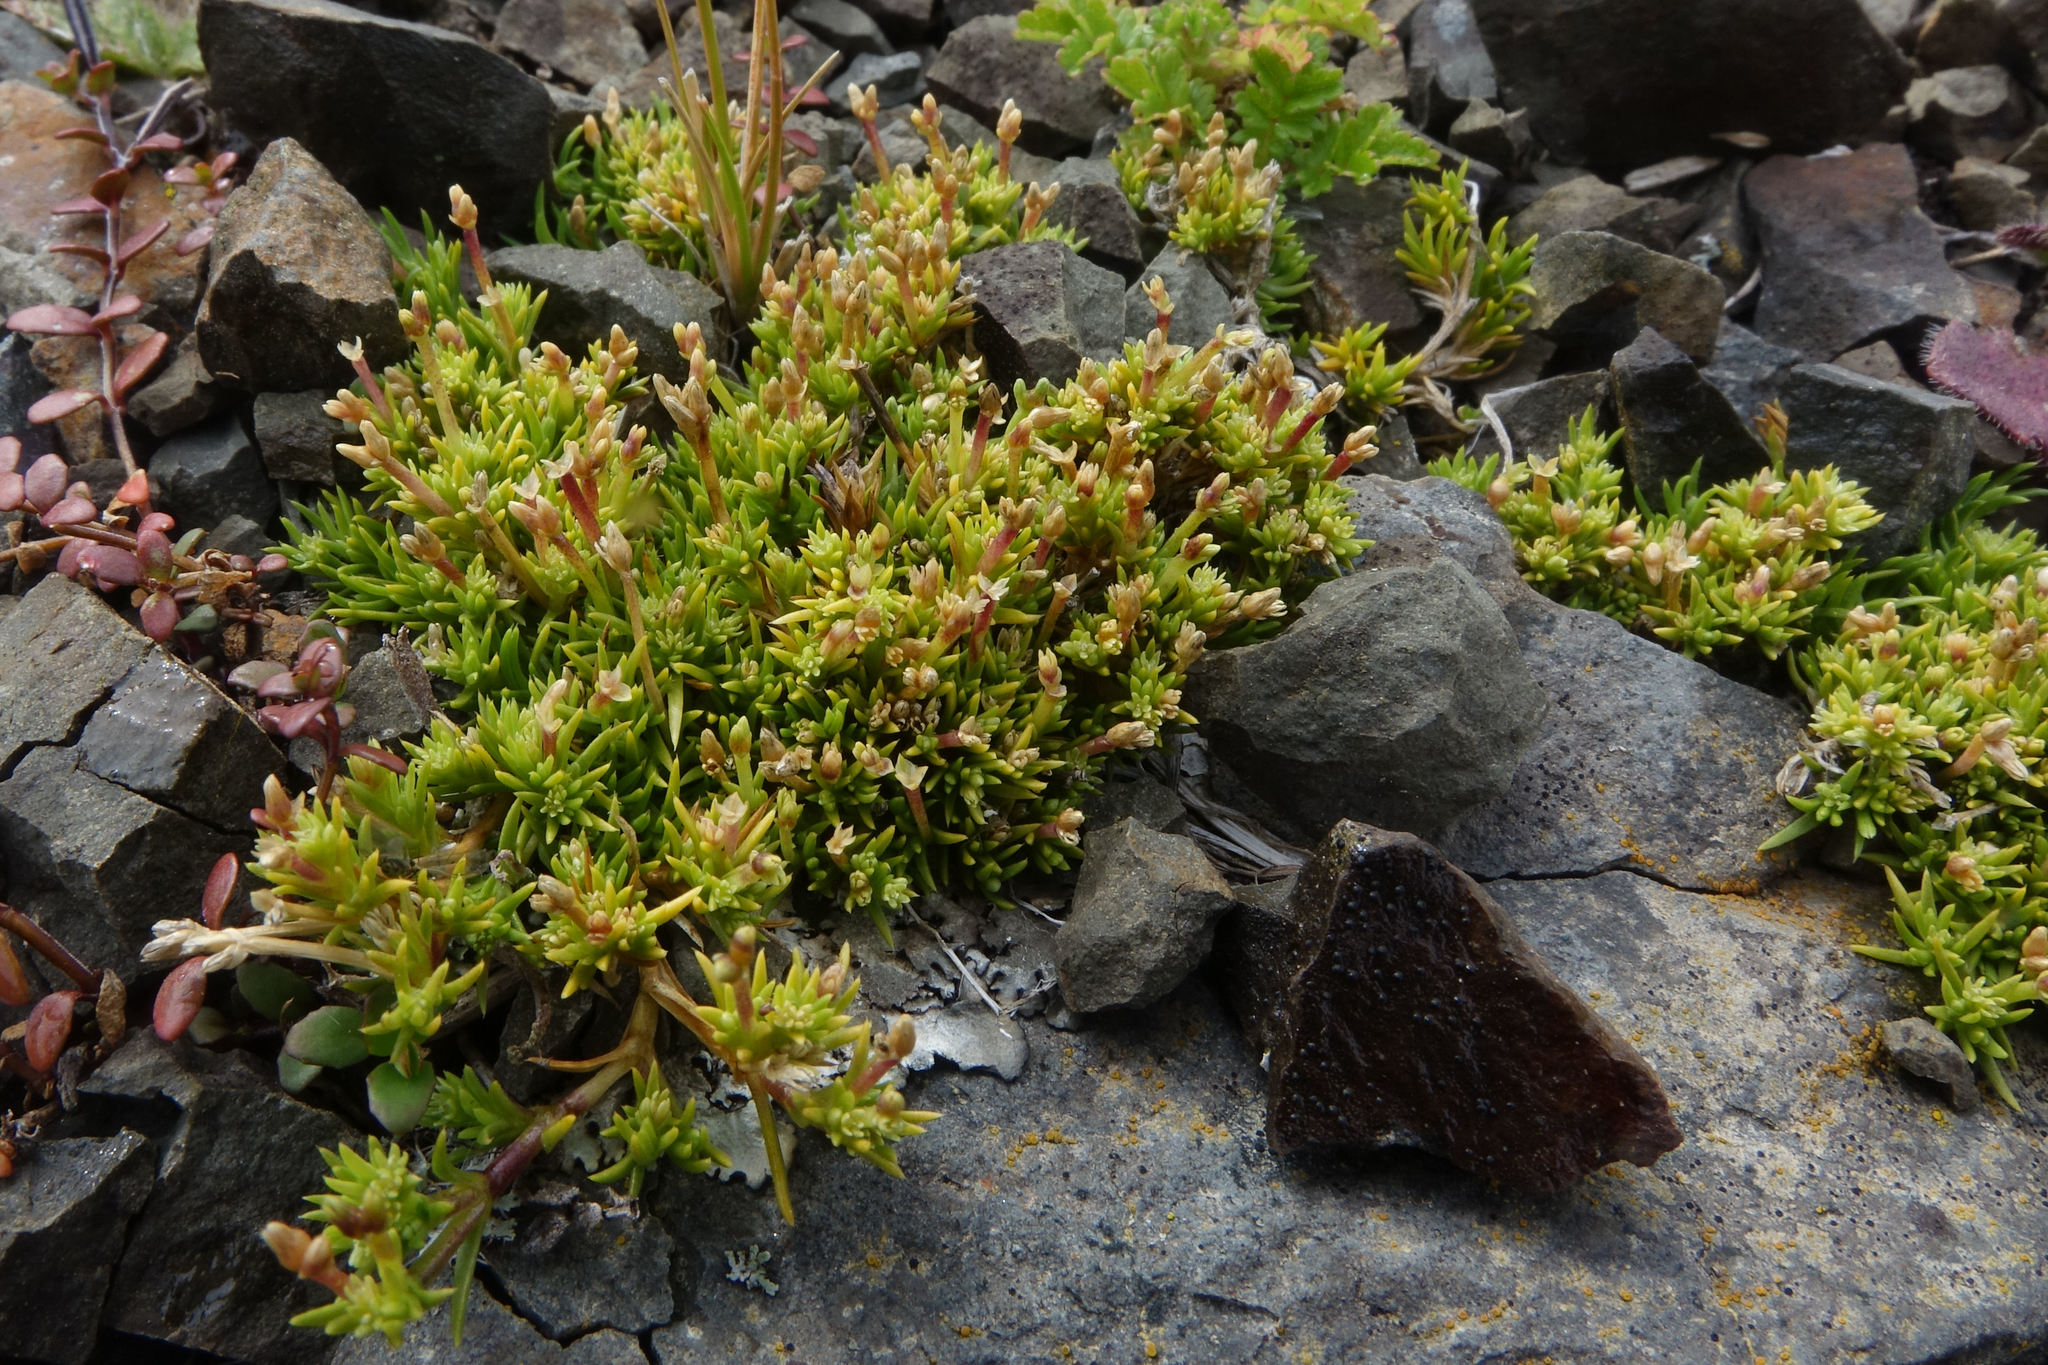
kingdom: Plantae
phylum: Tracheophyta
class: Magnoliopsida
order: Caryophyllales
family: Caryophyllaceae
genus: Scleranthus
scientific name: Scleranthus brockiei
